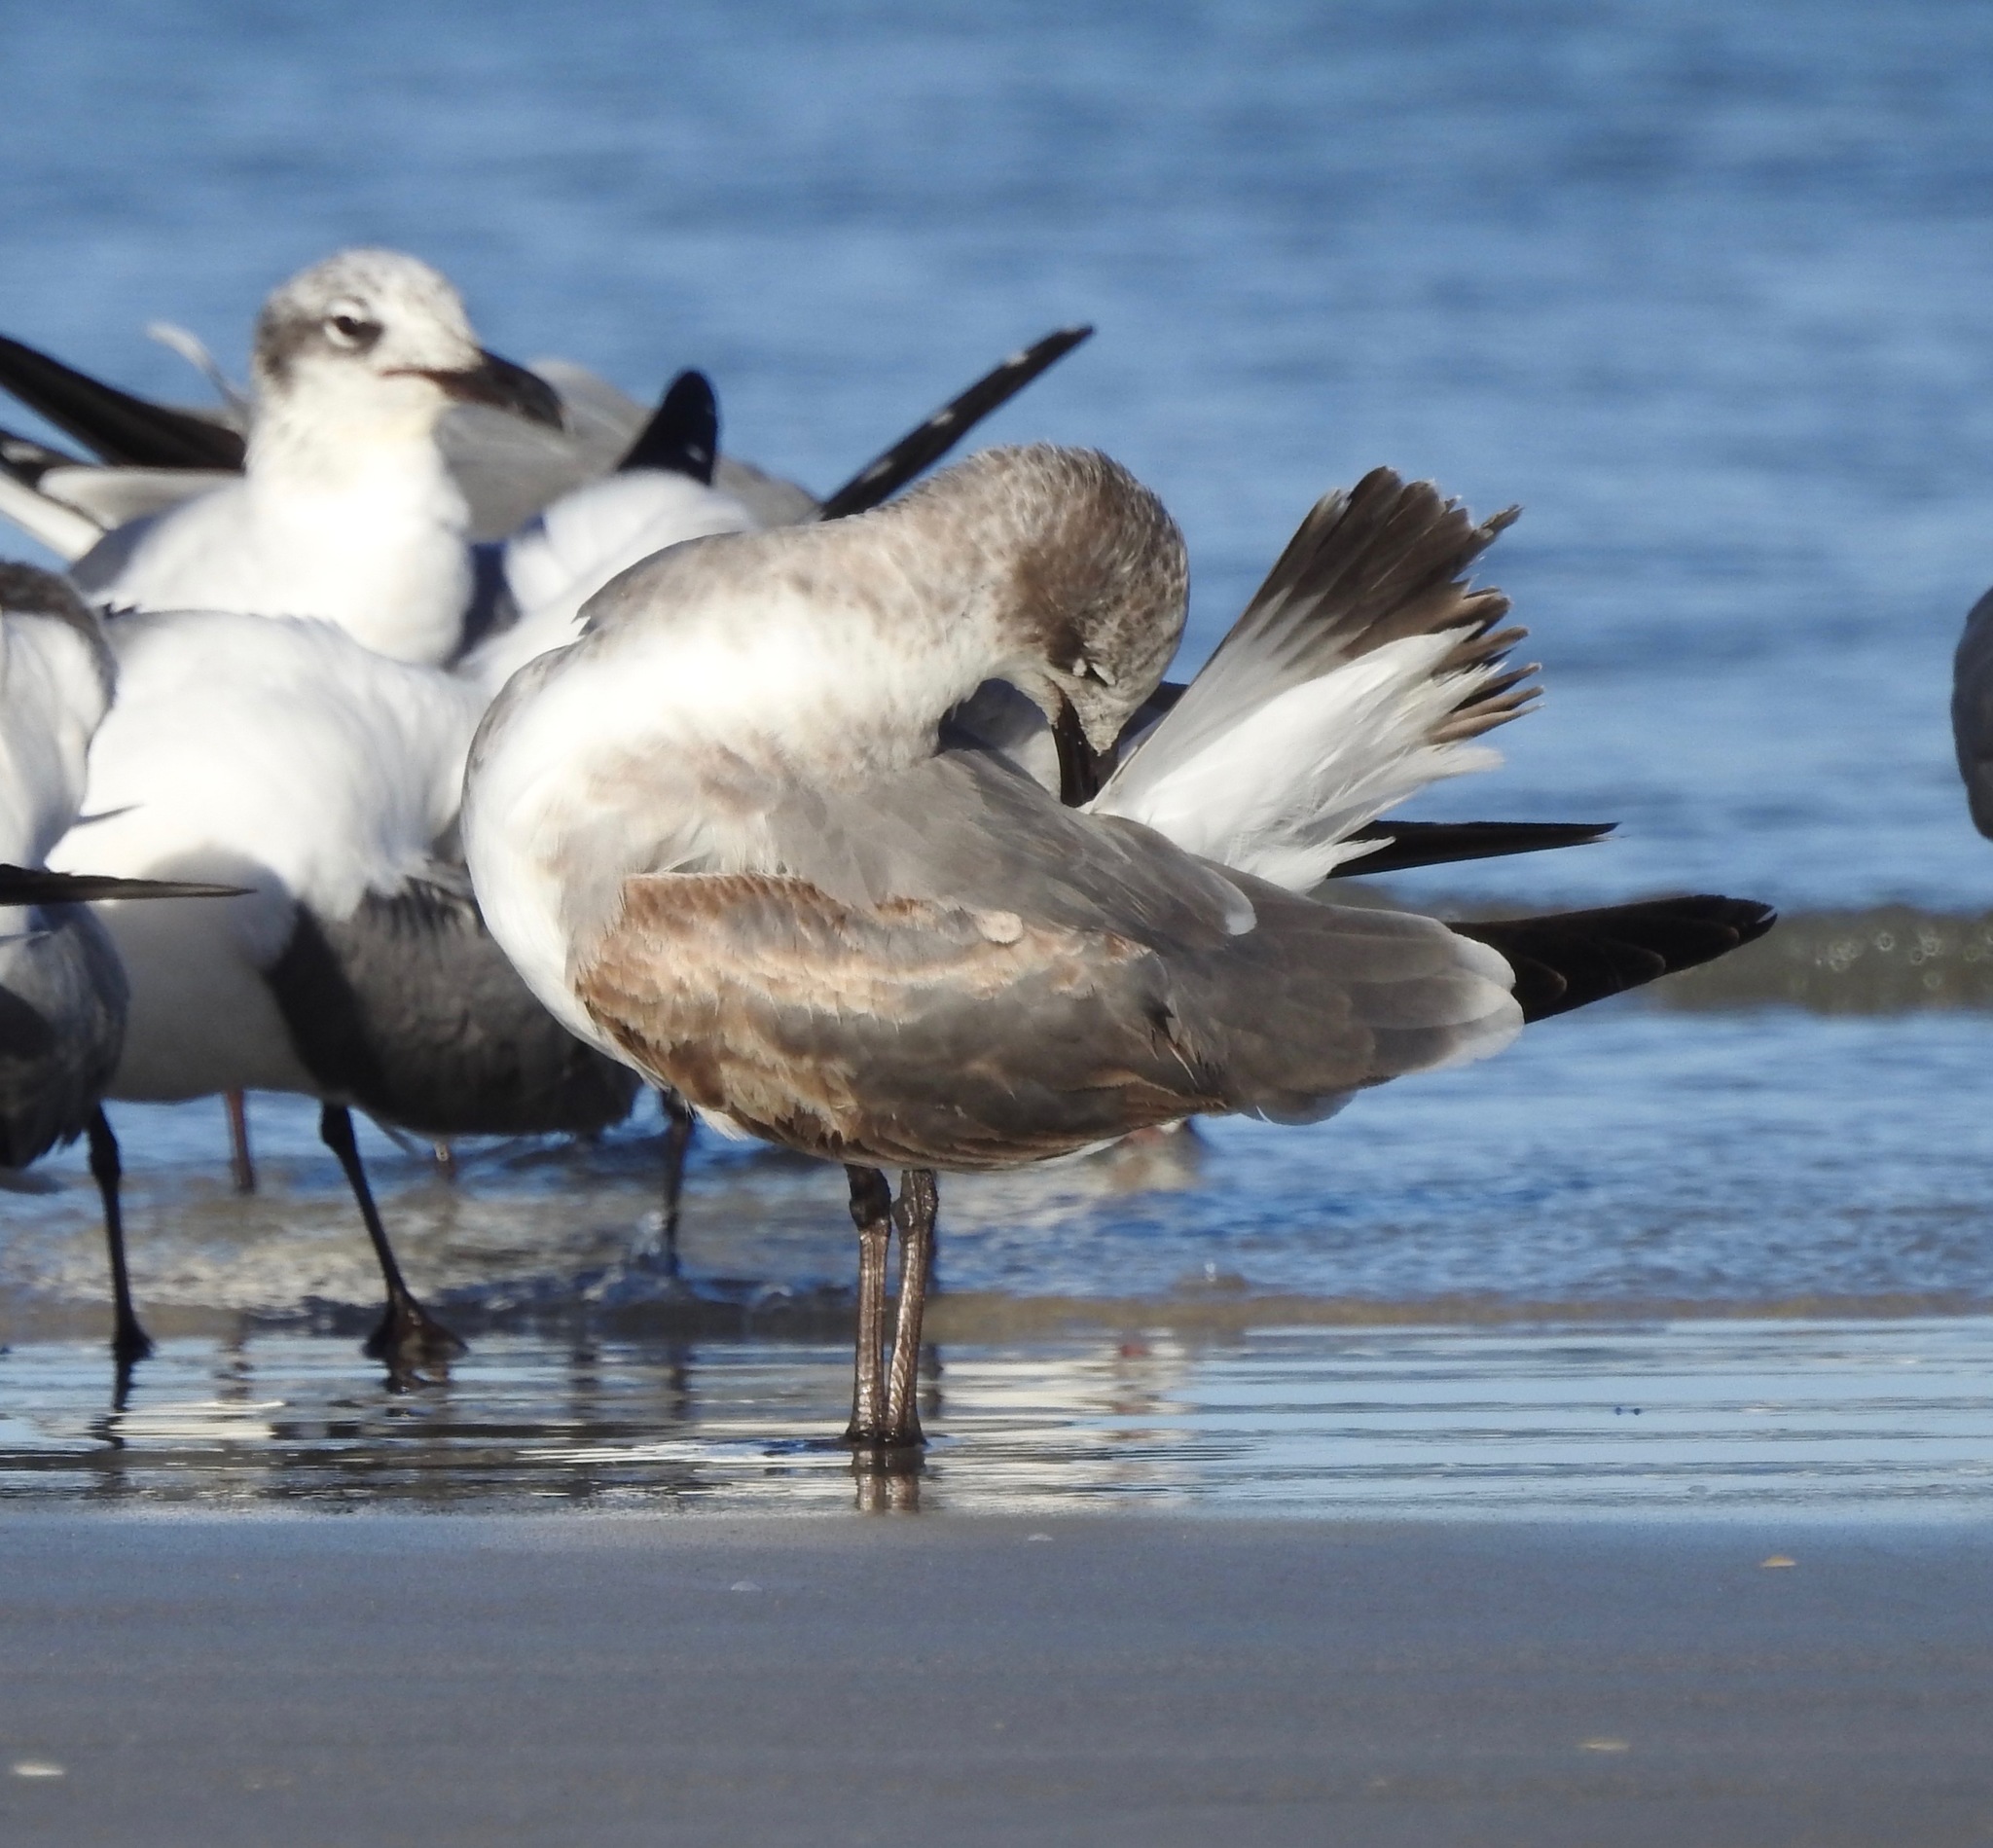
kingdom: Animalia
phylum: Chordata
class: Aves
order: Charadriiformes
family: Laridae
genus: Leucophaeus
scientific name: Leucophaeus atricilla
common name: Laughing gull
